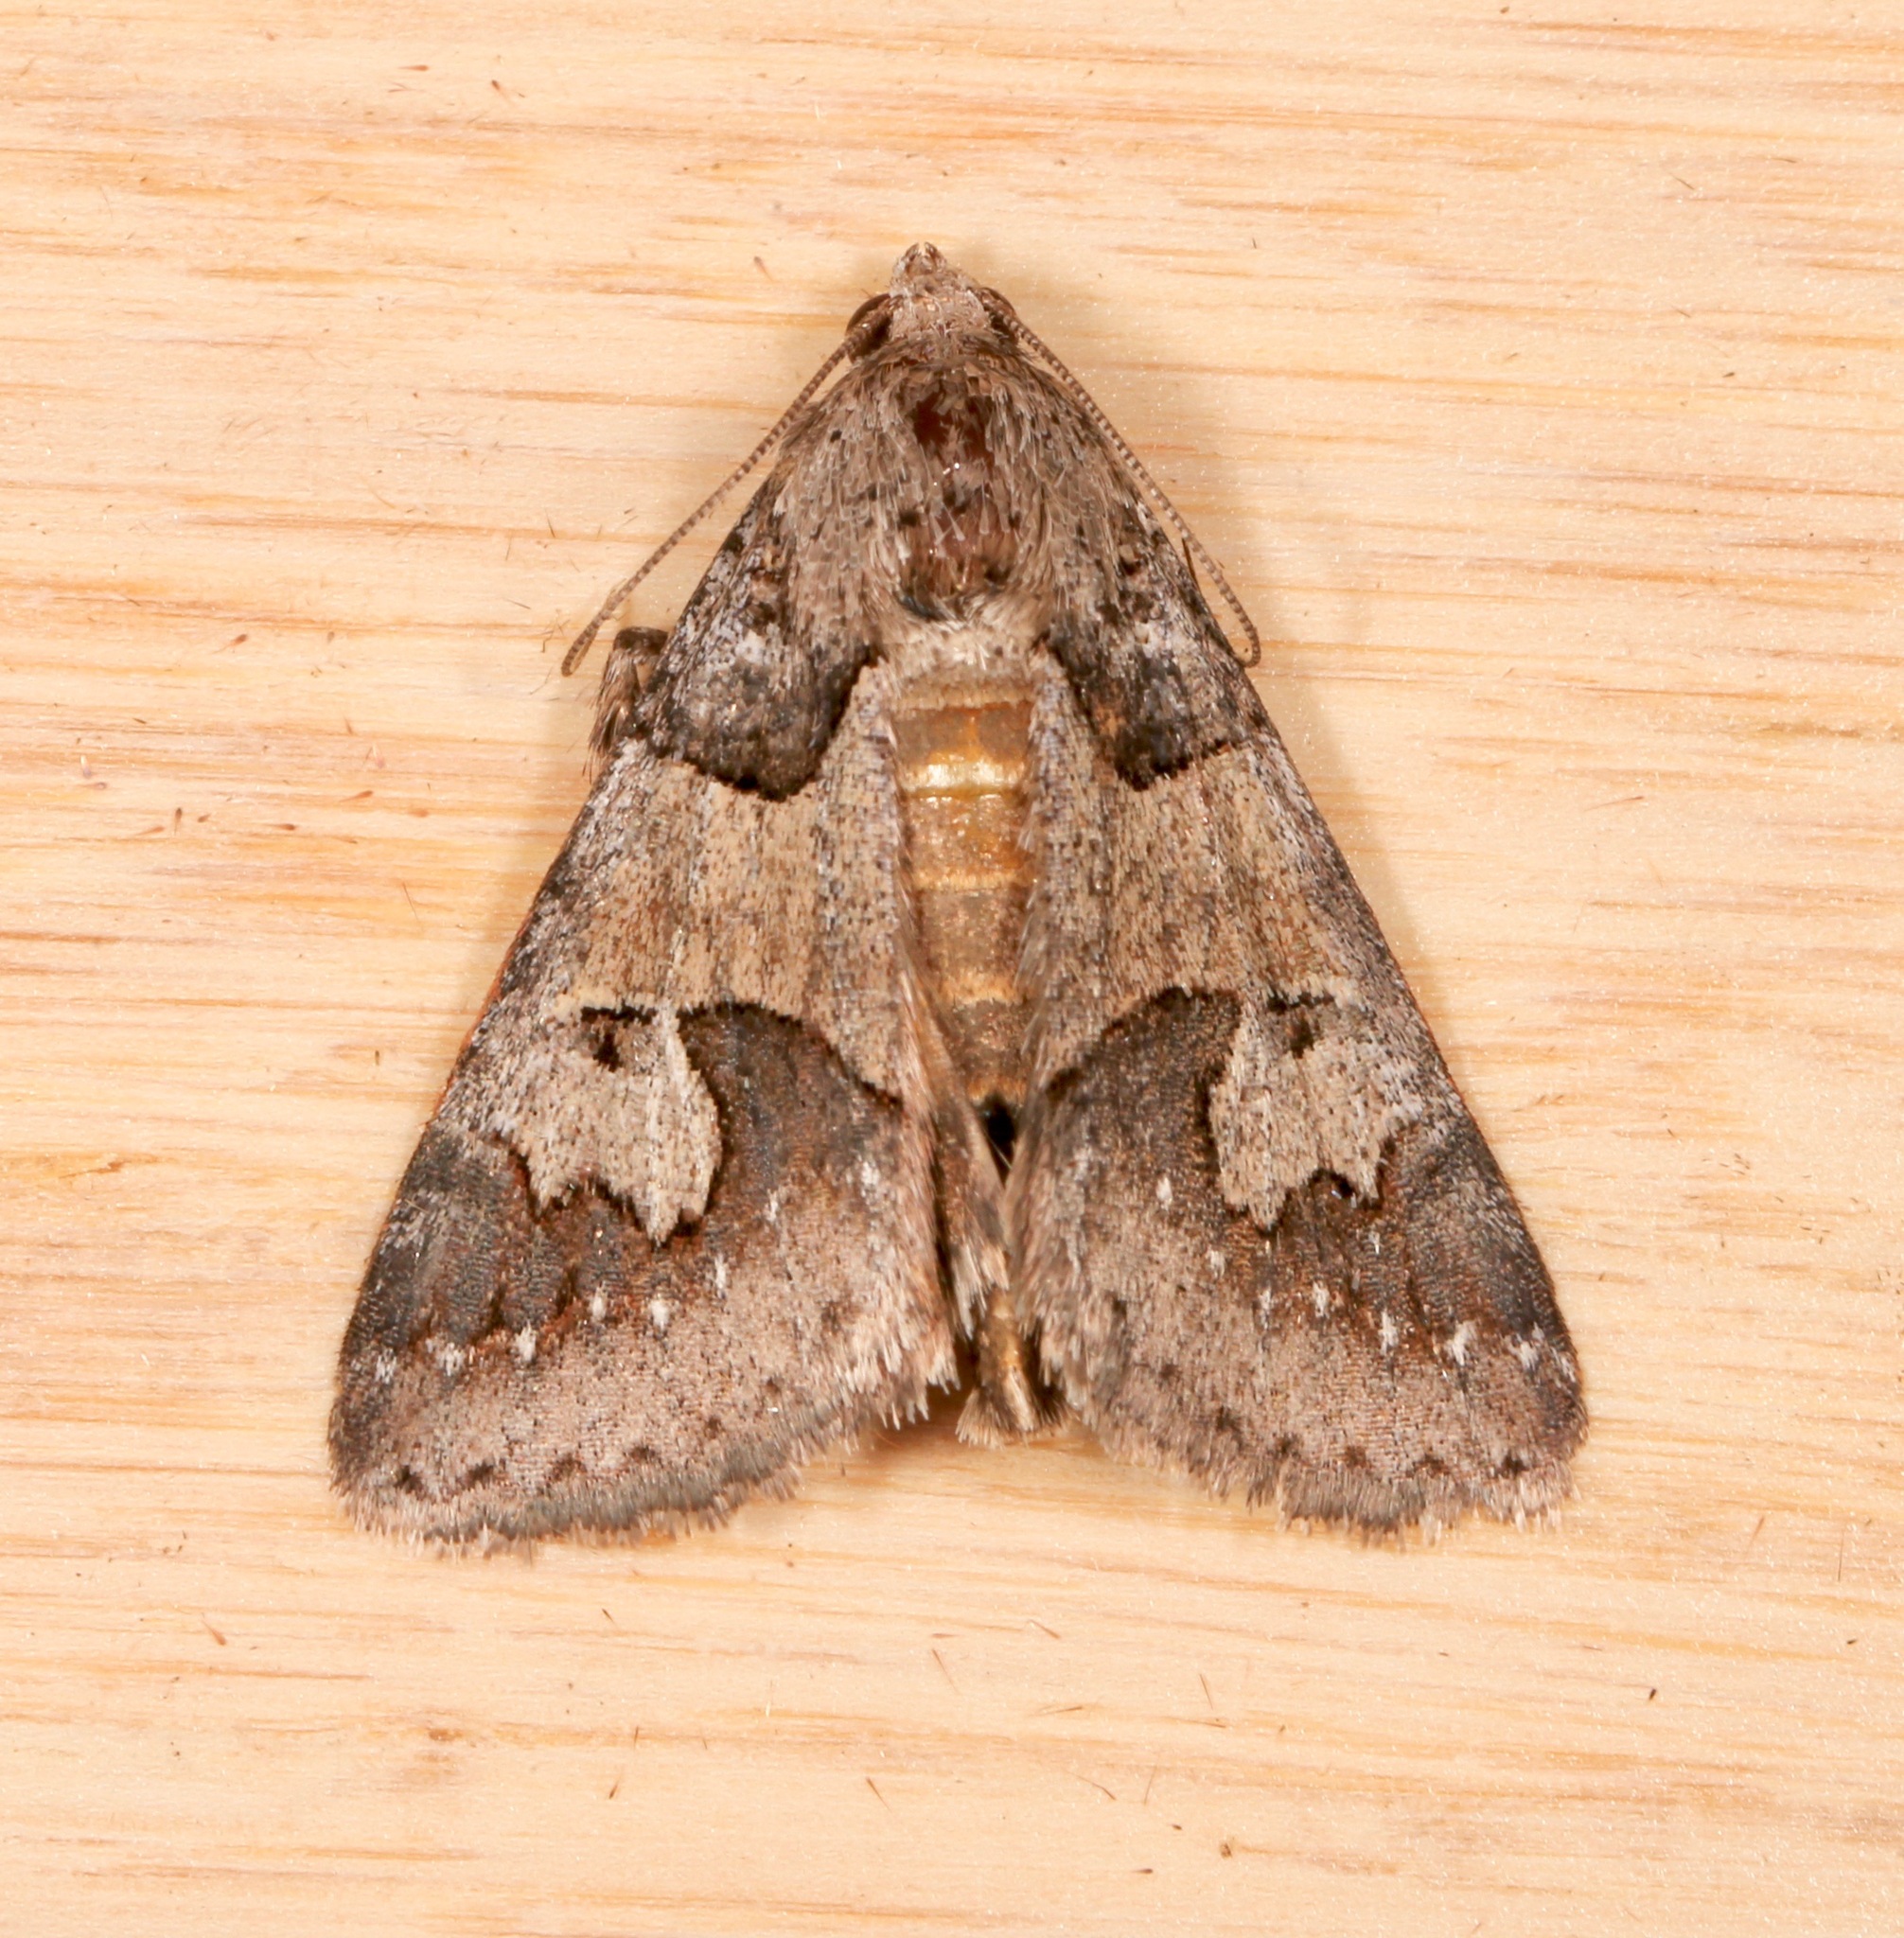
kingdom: Animalia
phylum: Arthropoda
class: Insecta
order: Lepidoptera
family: Erebidae
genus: Drasteria
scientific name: Drasteria graphica
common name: Coastal graphic
